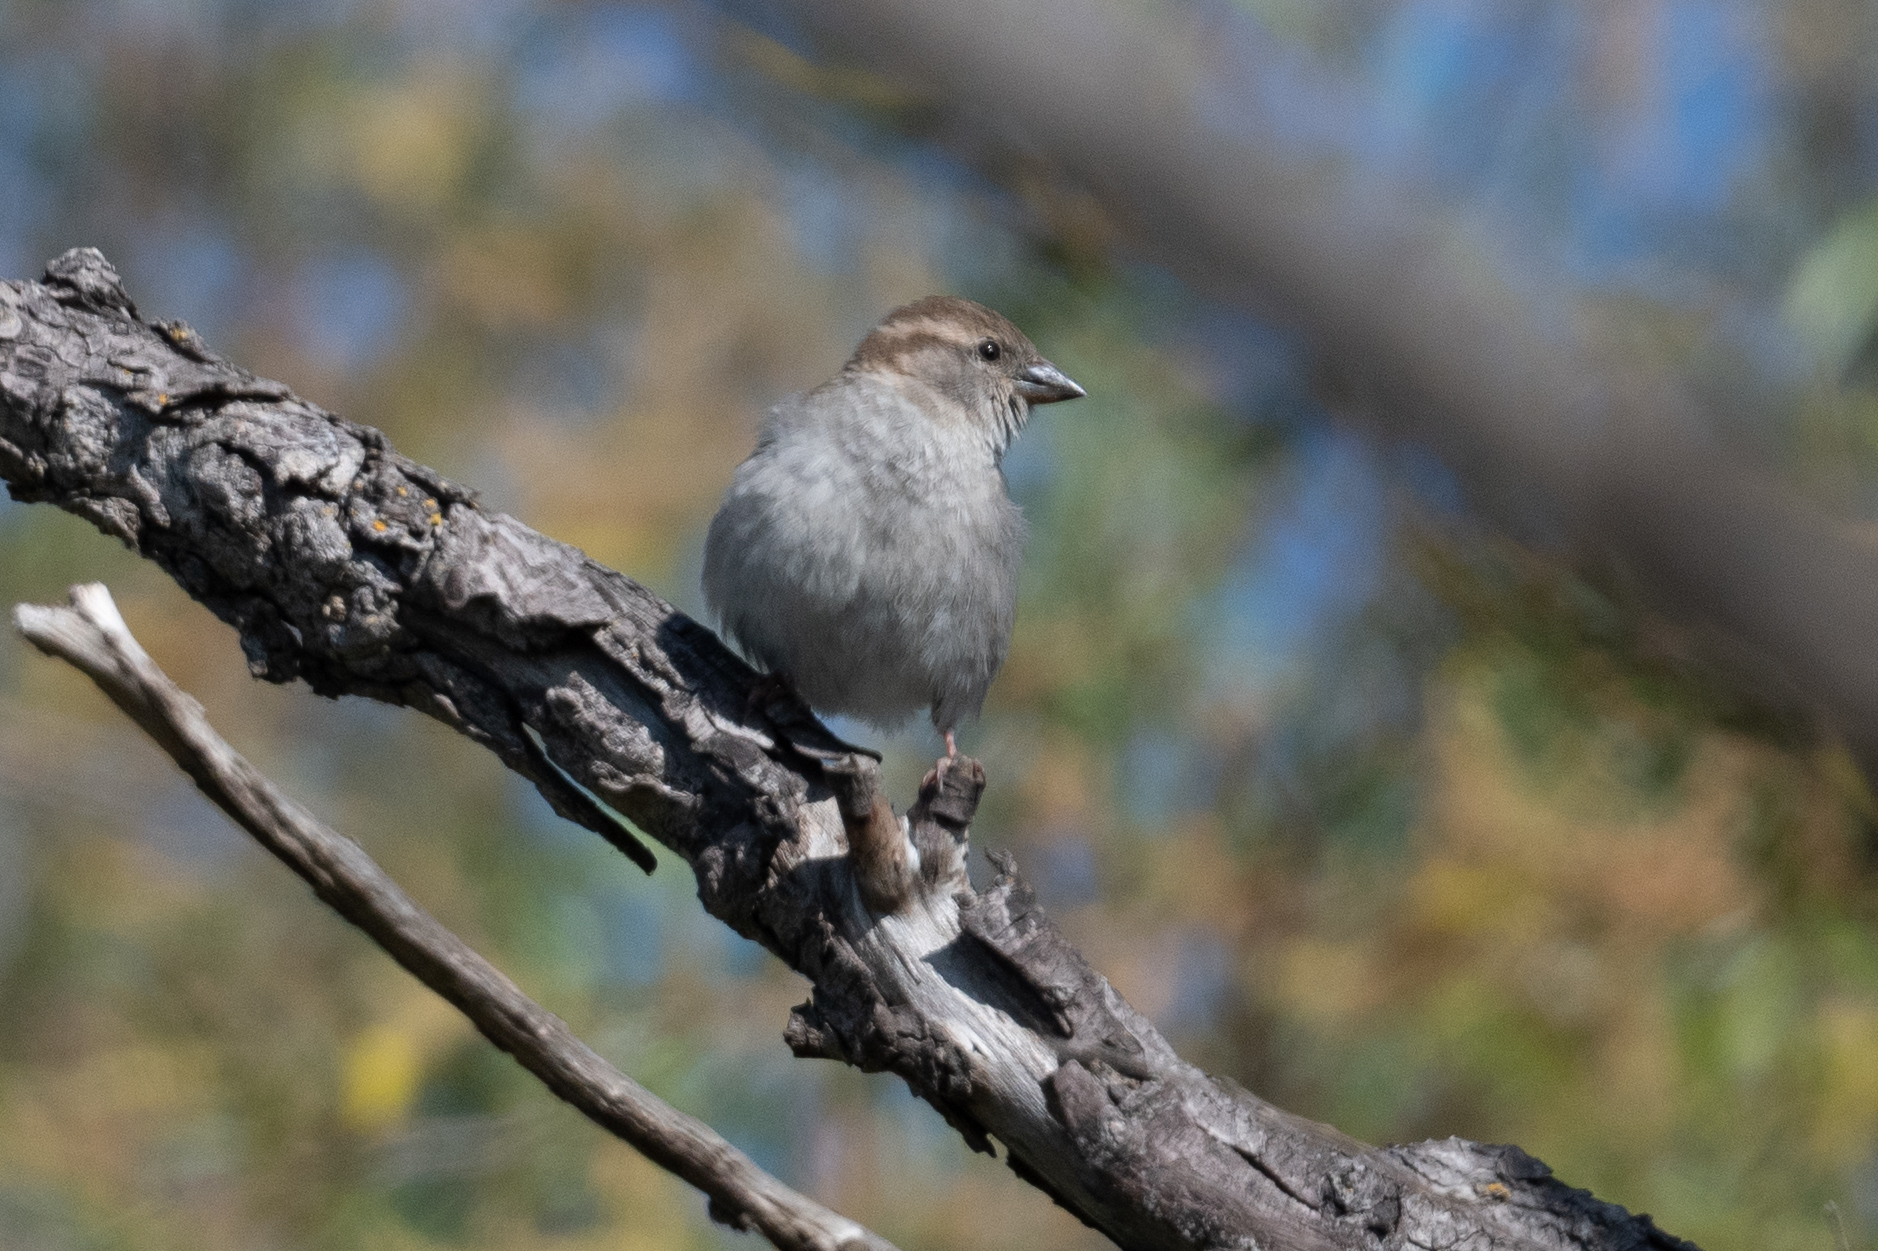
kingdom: Animalia
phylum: Chordata
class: Aves
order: Passeriformes
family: Passeridae
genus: Passer
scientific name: Passer domesticus
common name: House sparrow
